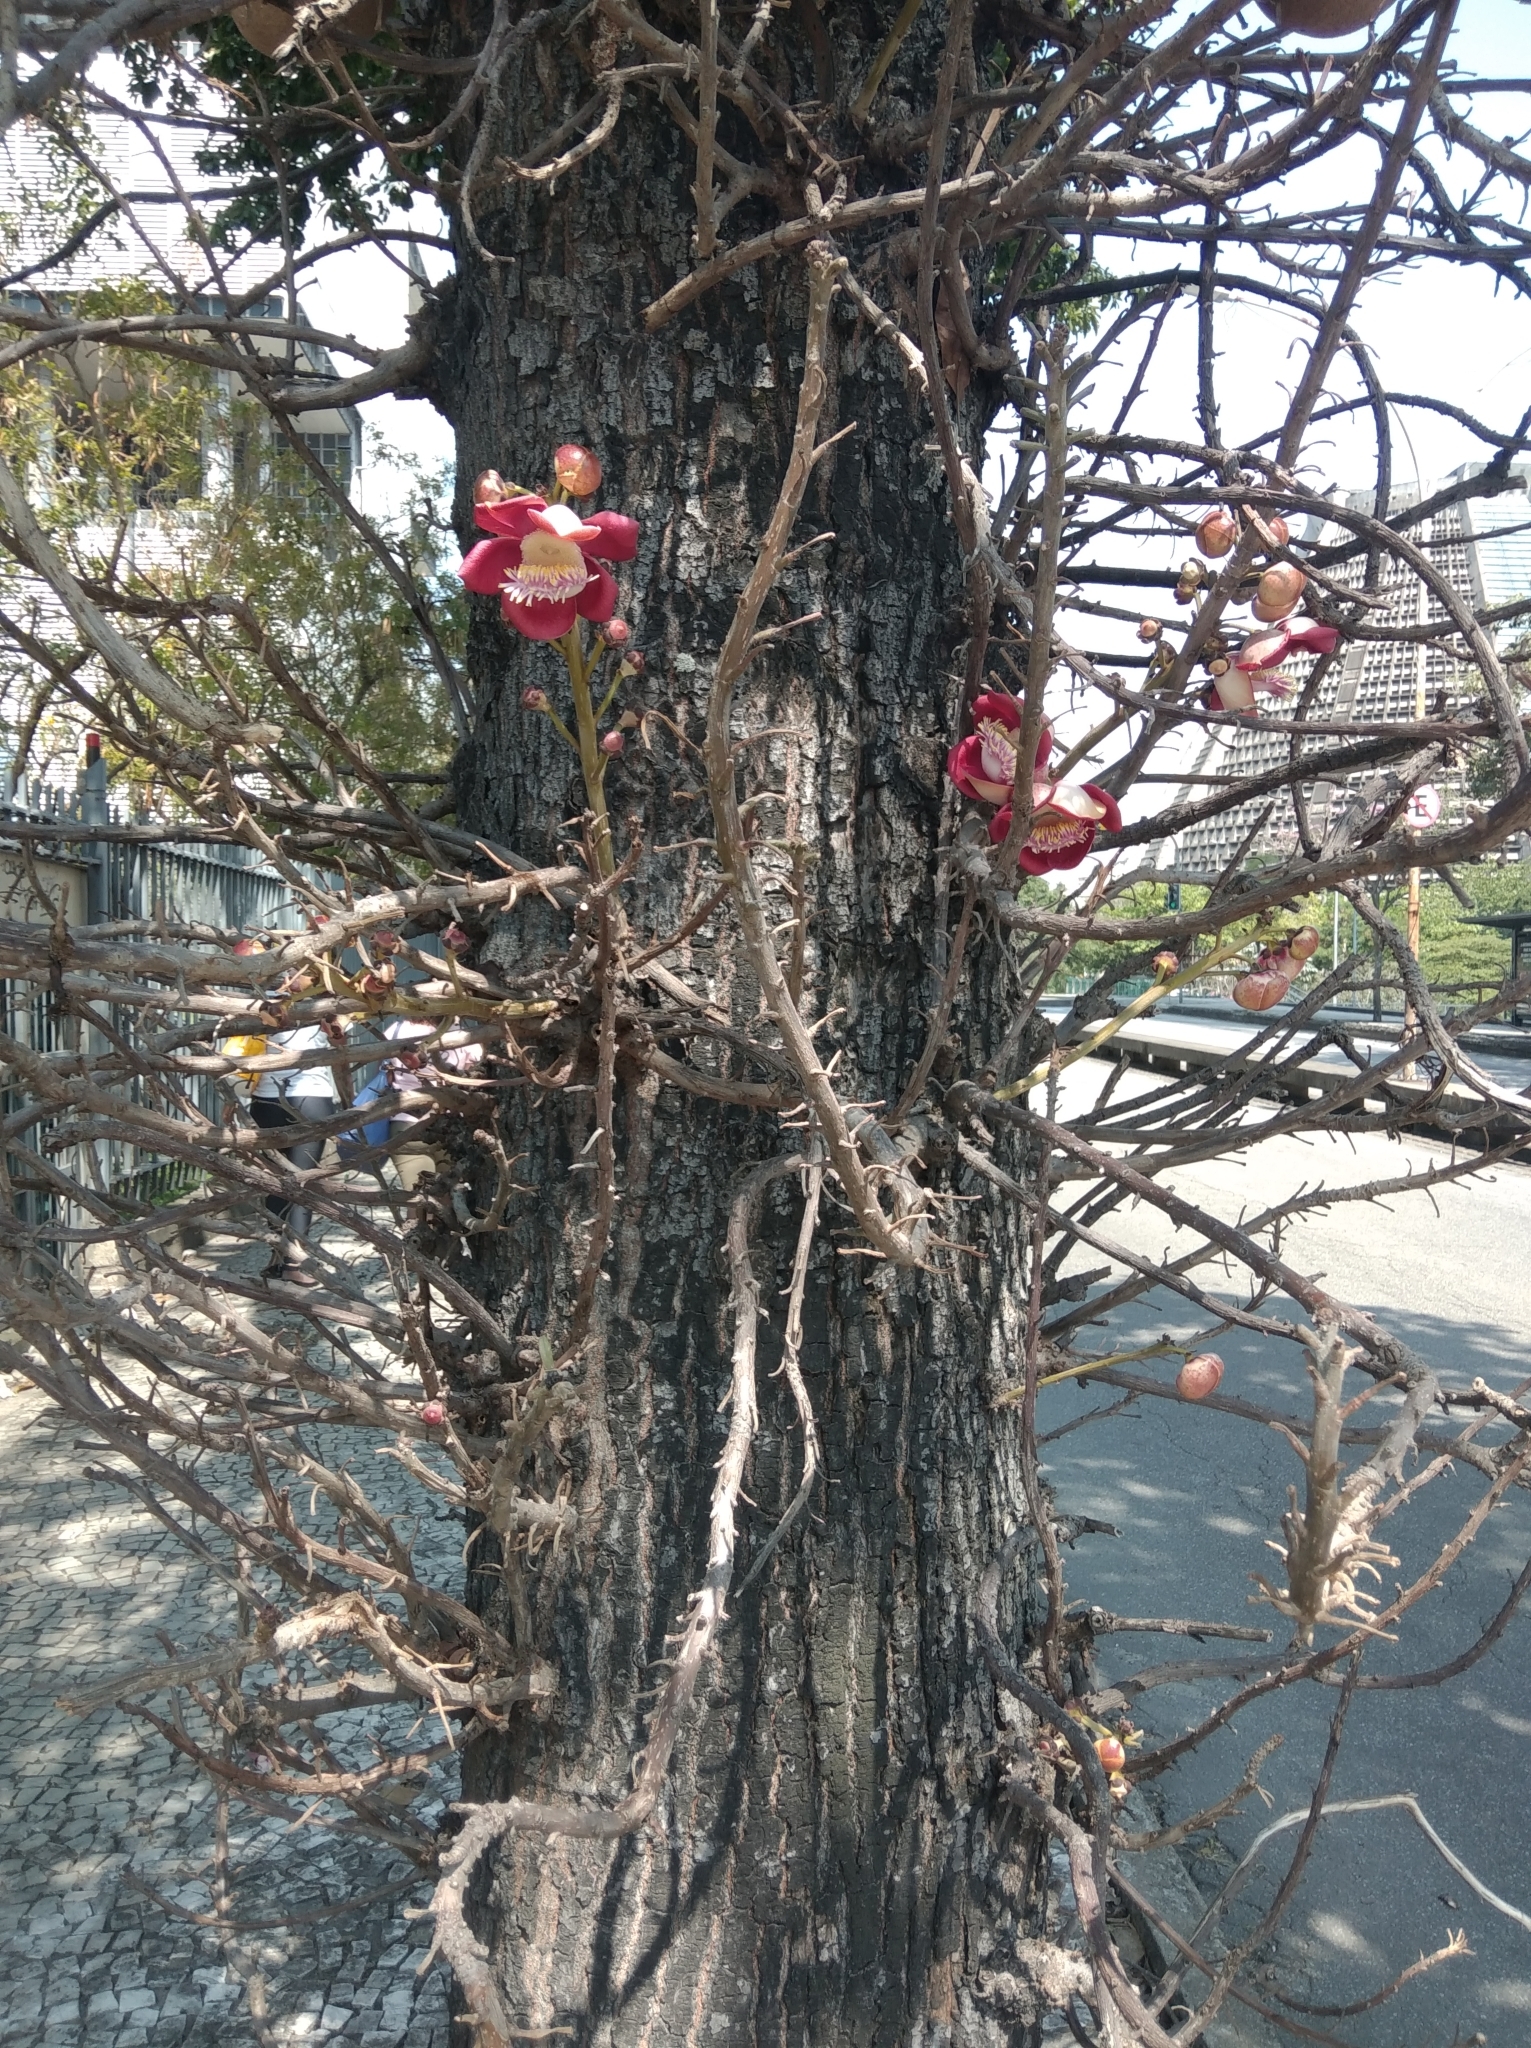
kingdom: Plantae
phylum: Tracheophyta
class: Magnoliopsida
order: Ericales
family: Lecythidaceae
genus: Couroupita
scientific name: Couroupita guianensis
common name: Cannonball tree
